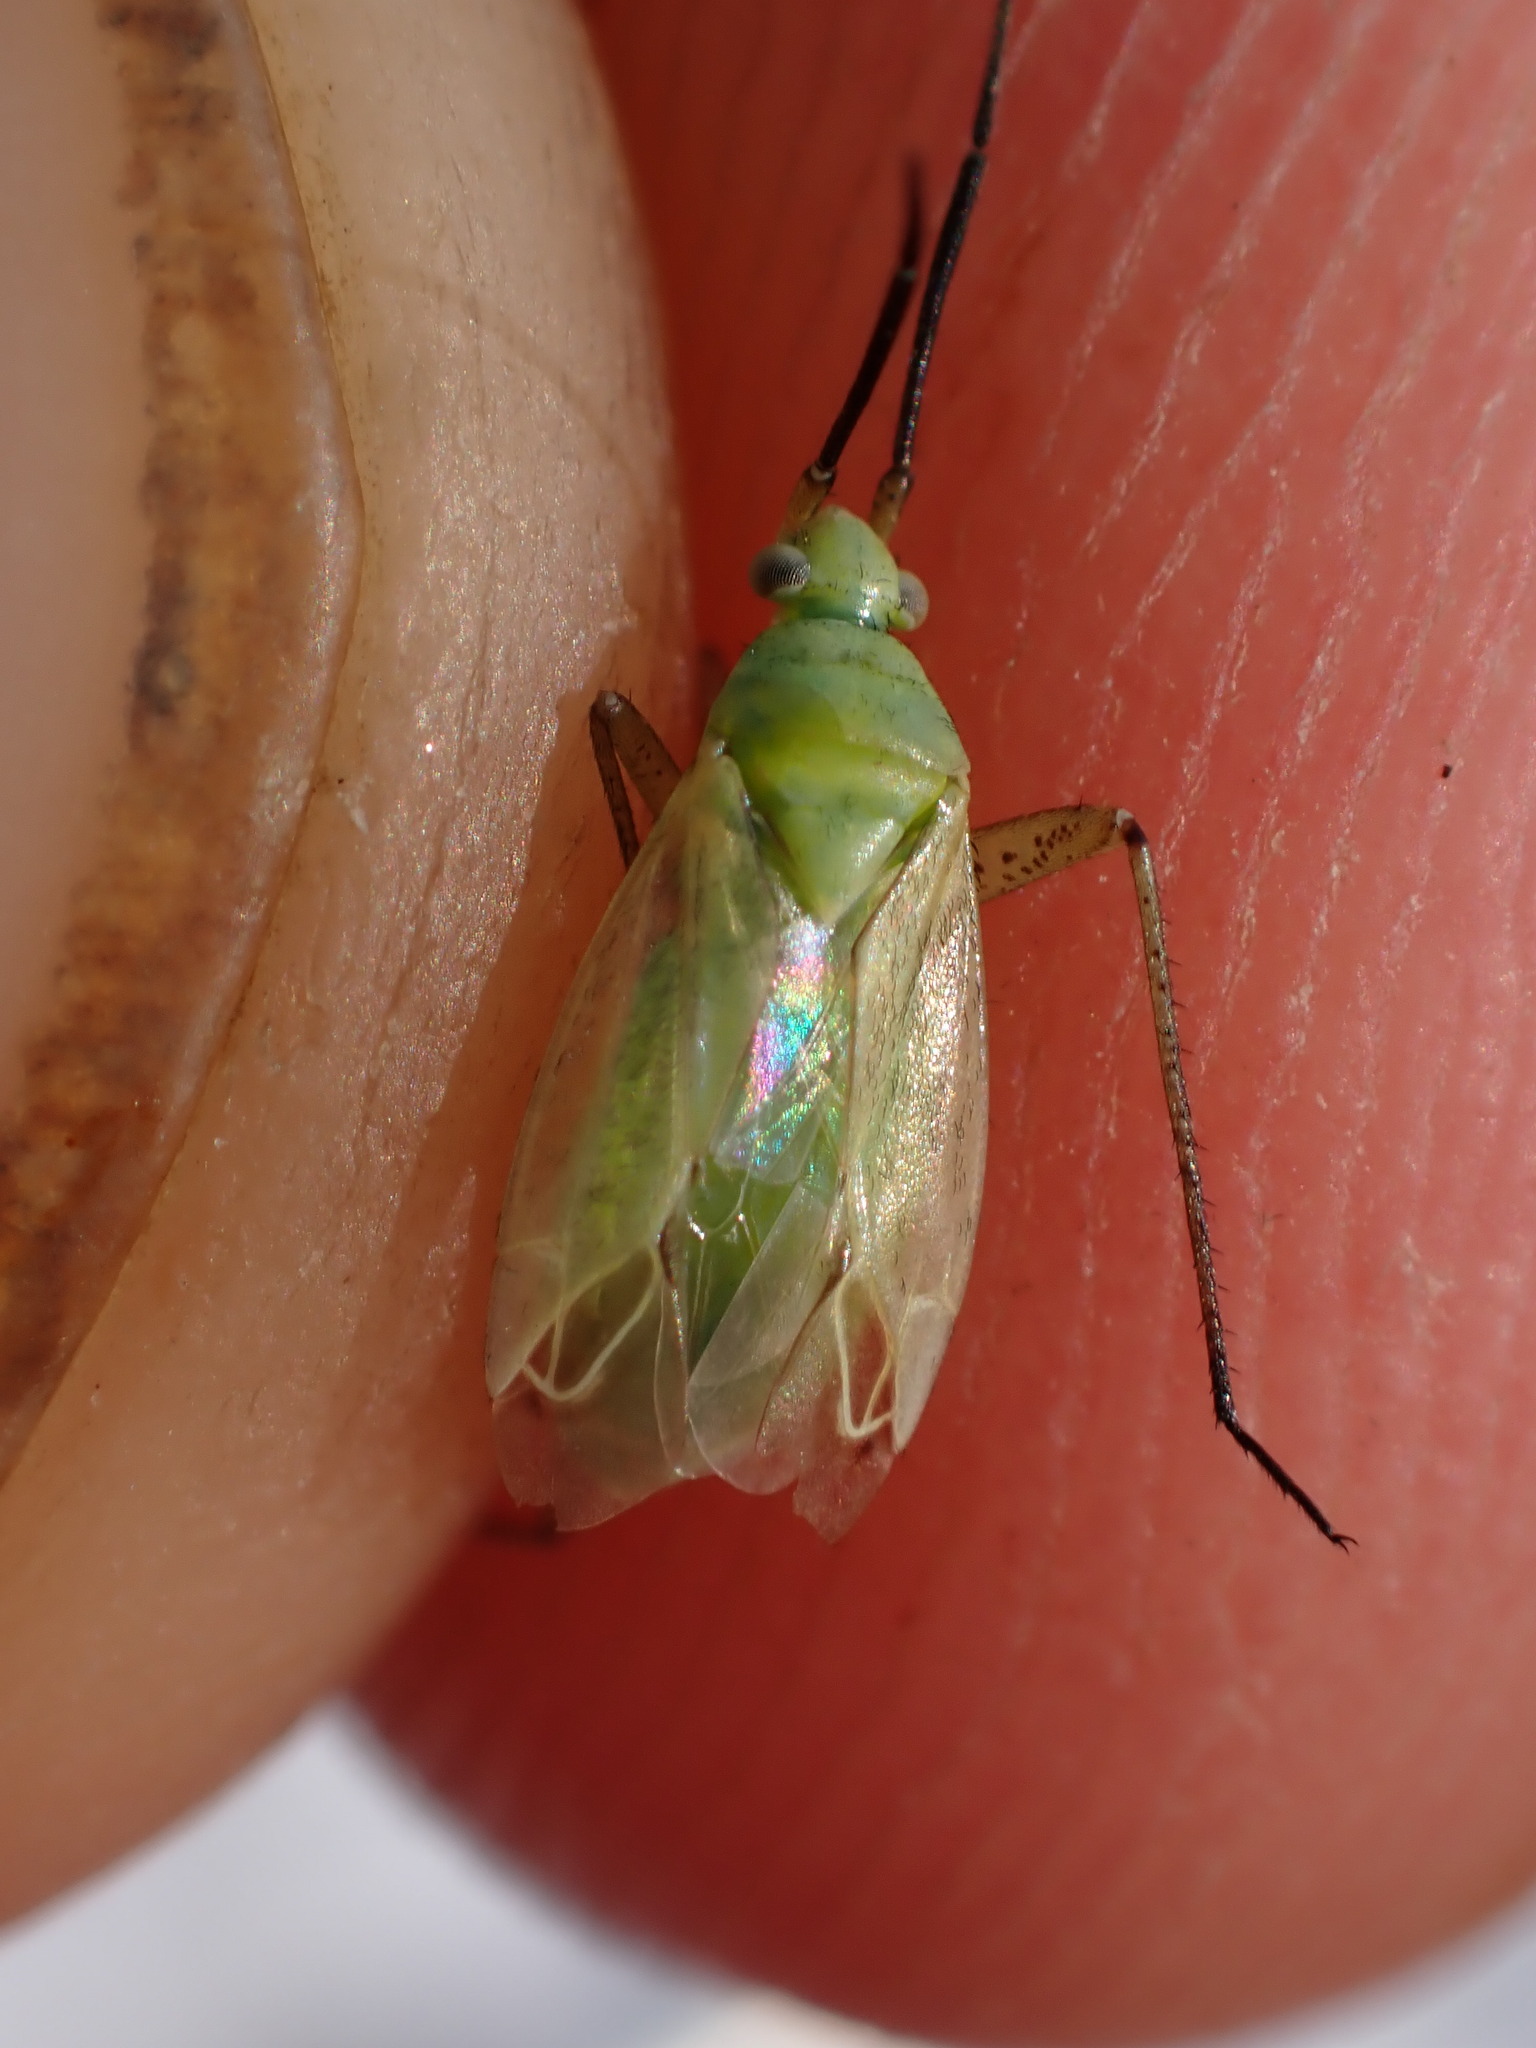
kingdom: Animalia
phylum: Arthropoda
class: Insecta
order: Hemiptera
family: Miridae
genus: Oncotylus
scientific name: Oncotylus nigricornis
